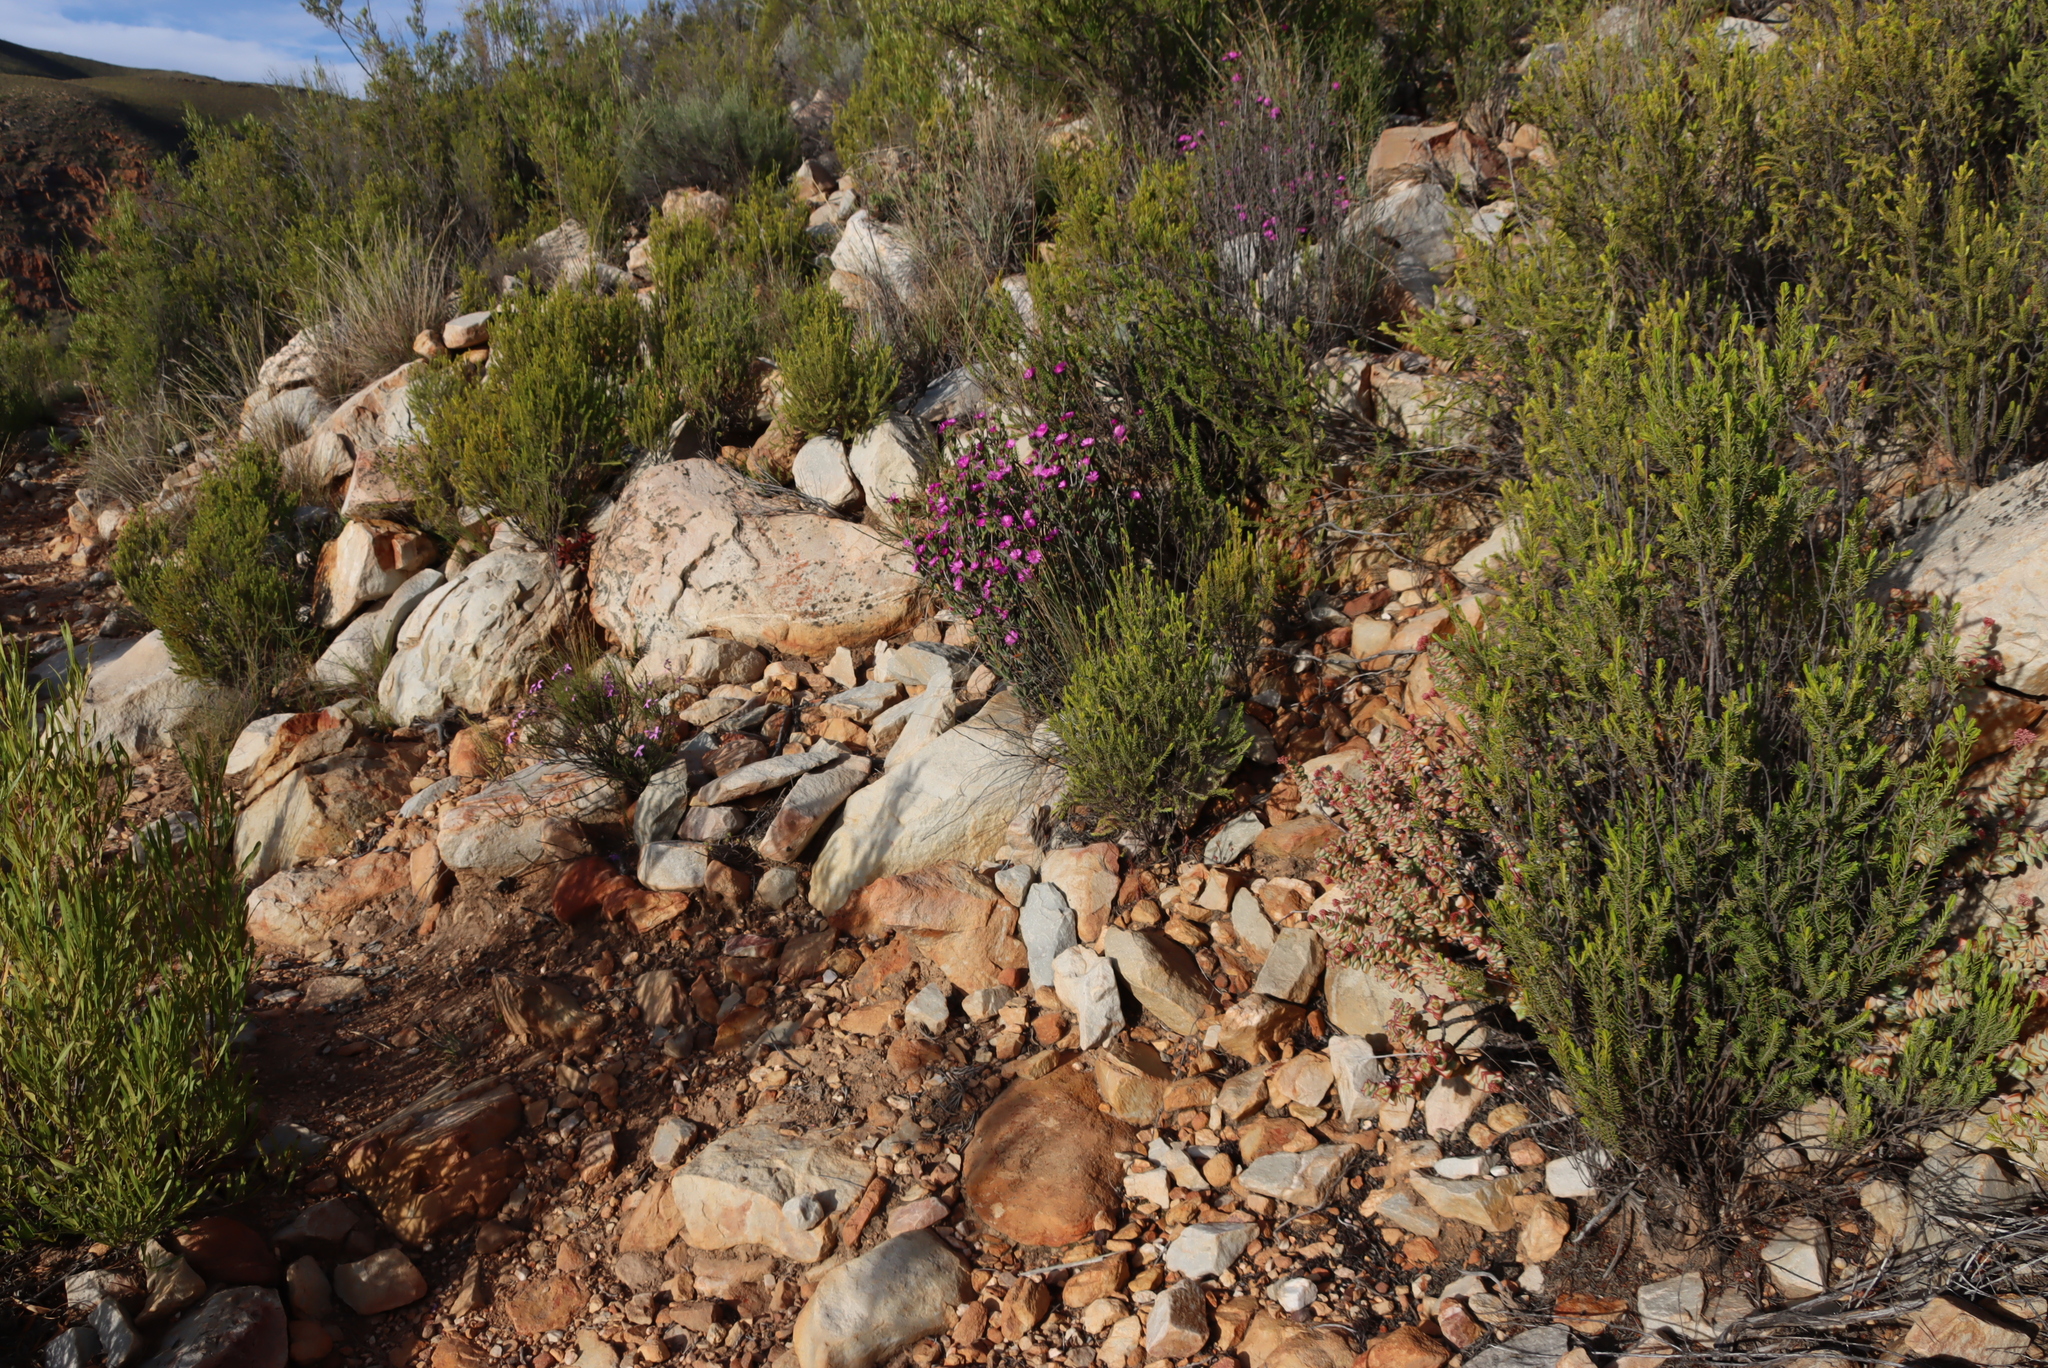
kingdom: Plantae
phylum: Tracheophyta
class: Magnoliopsida
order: Malvales
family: Thymelaeaceae
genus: Passerina
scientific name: Passerina obtusifolia
